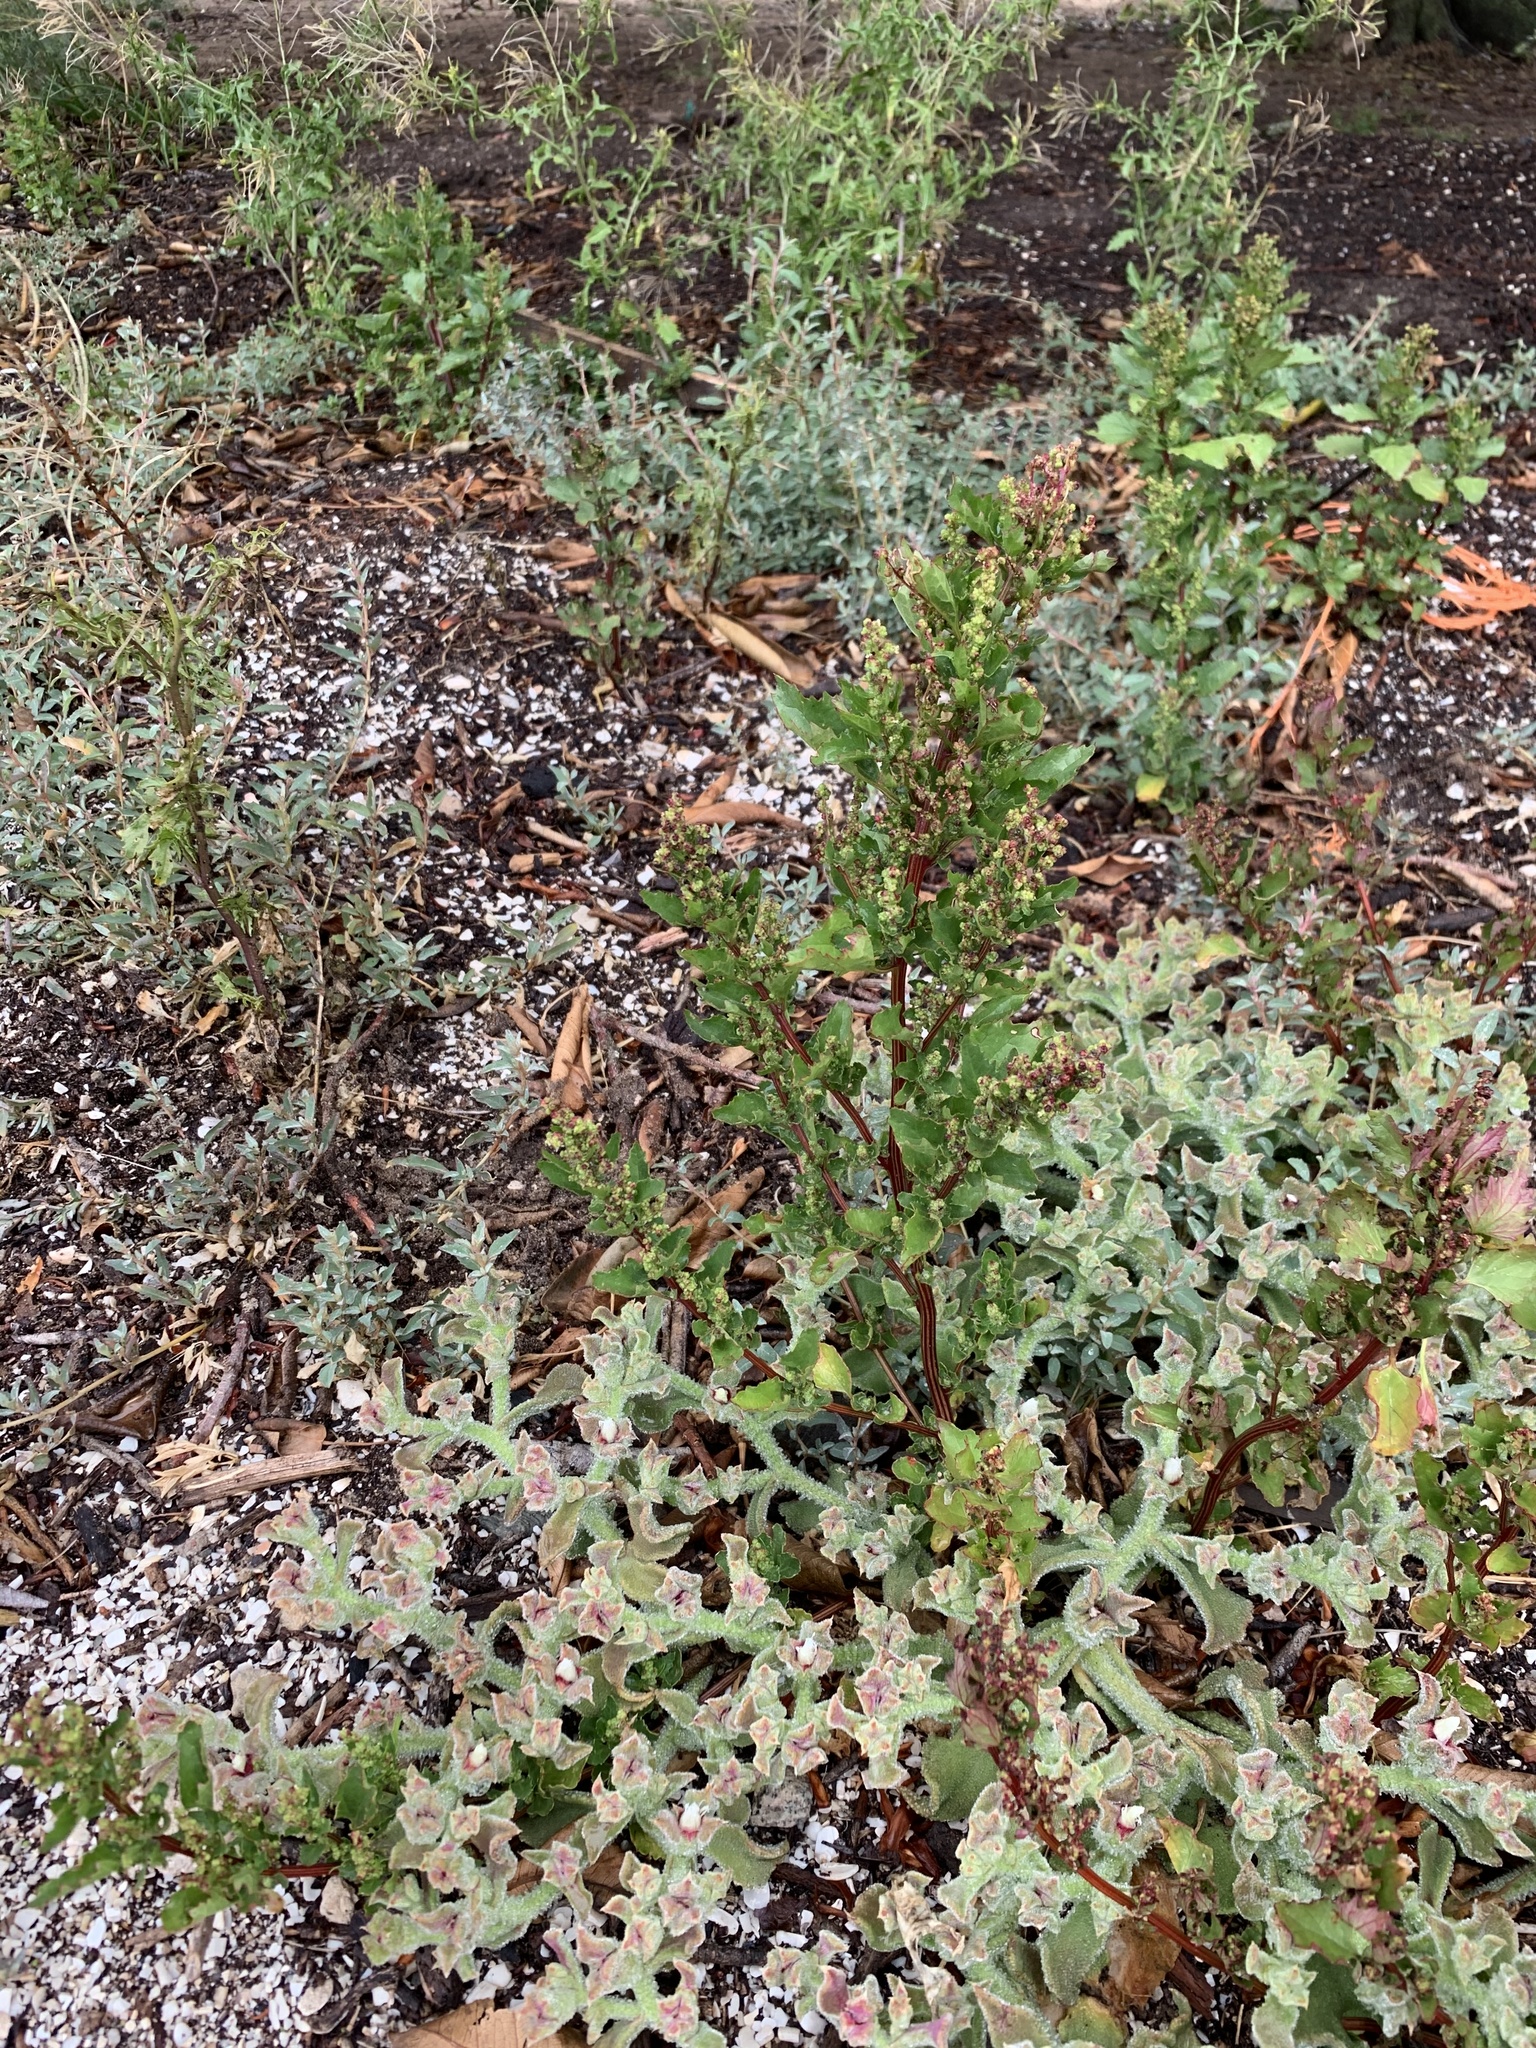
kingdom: Plantae
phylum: Tracheophyta
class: Magnoliopsida
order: Caryophyllales
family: Amaranthaceae
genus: Chenopodiastrum
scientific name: Chenopodiastrum murale
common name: Sowbane
